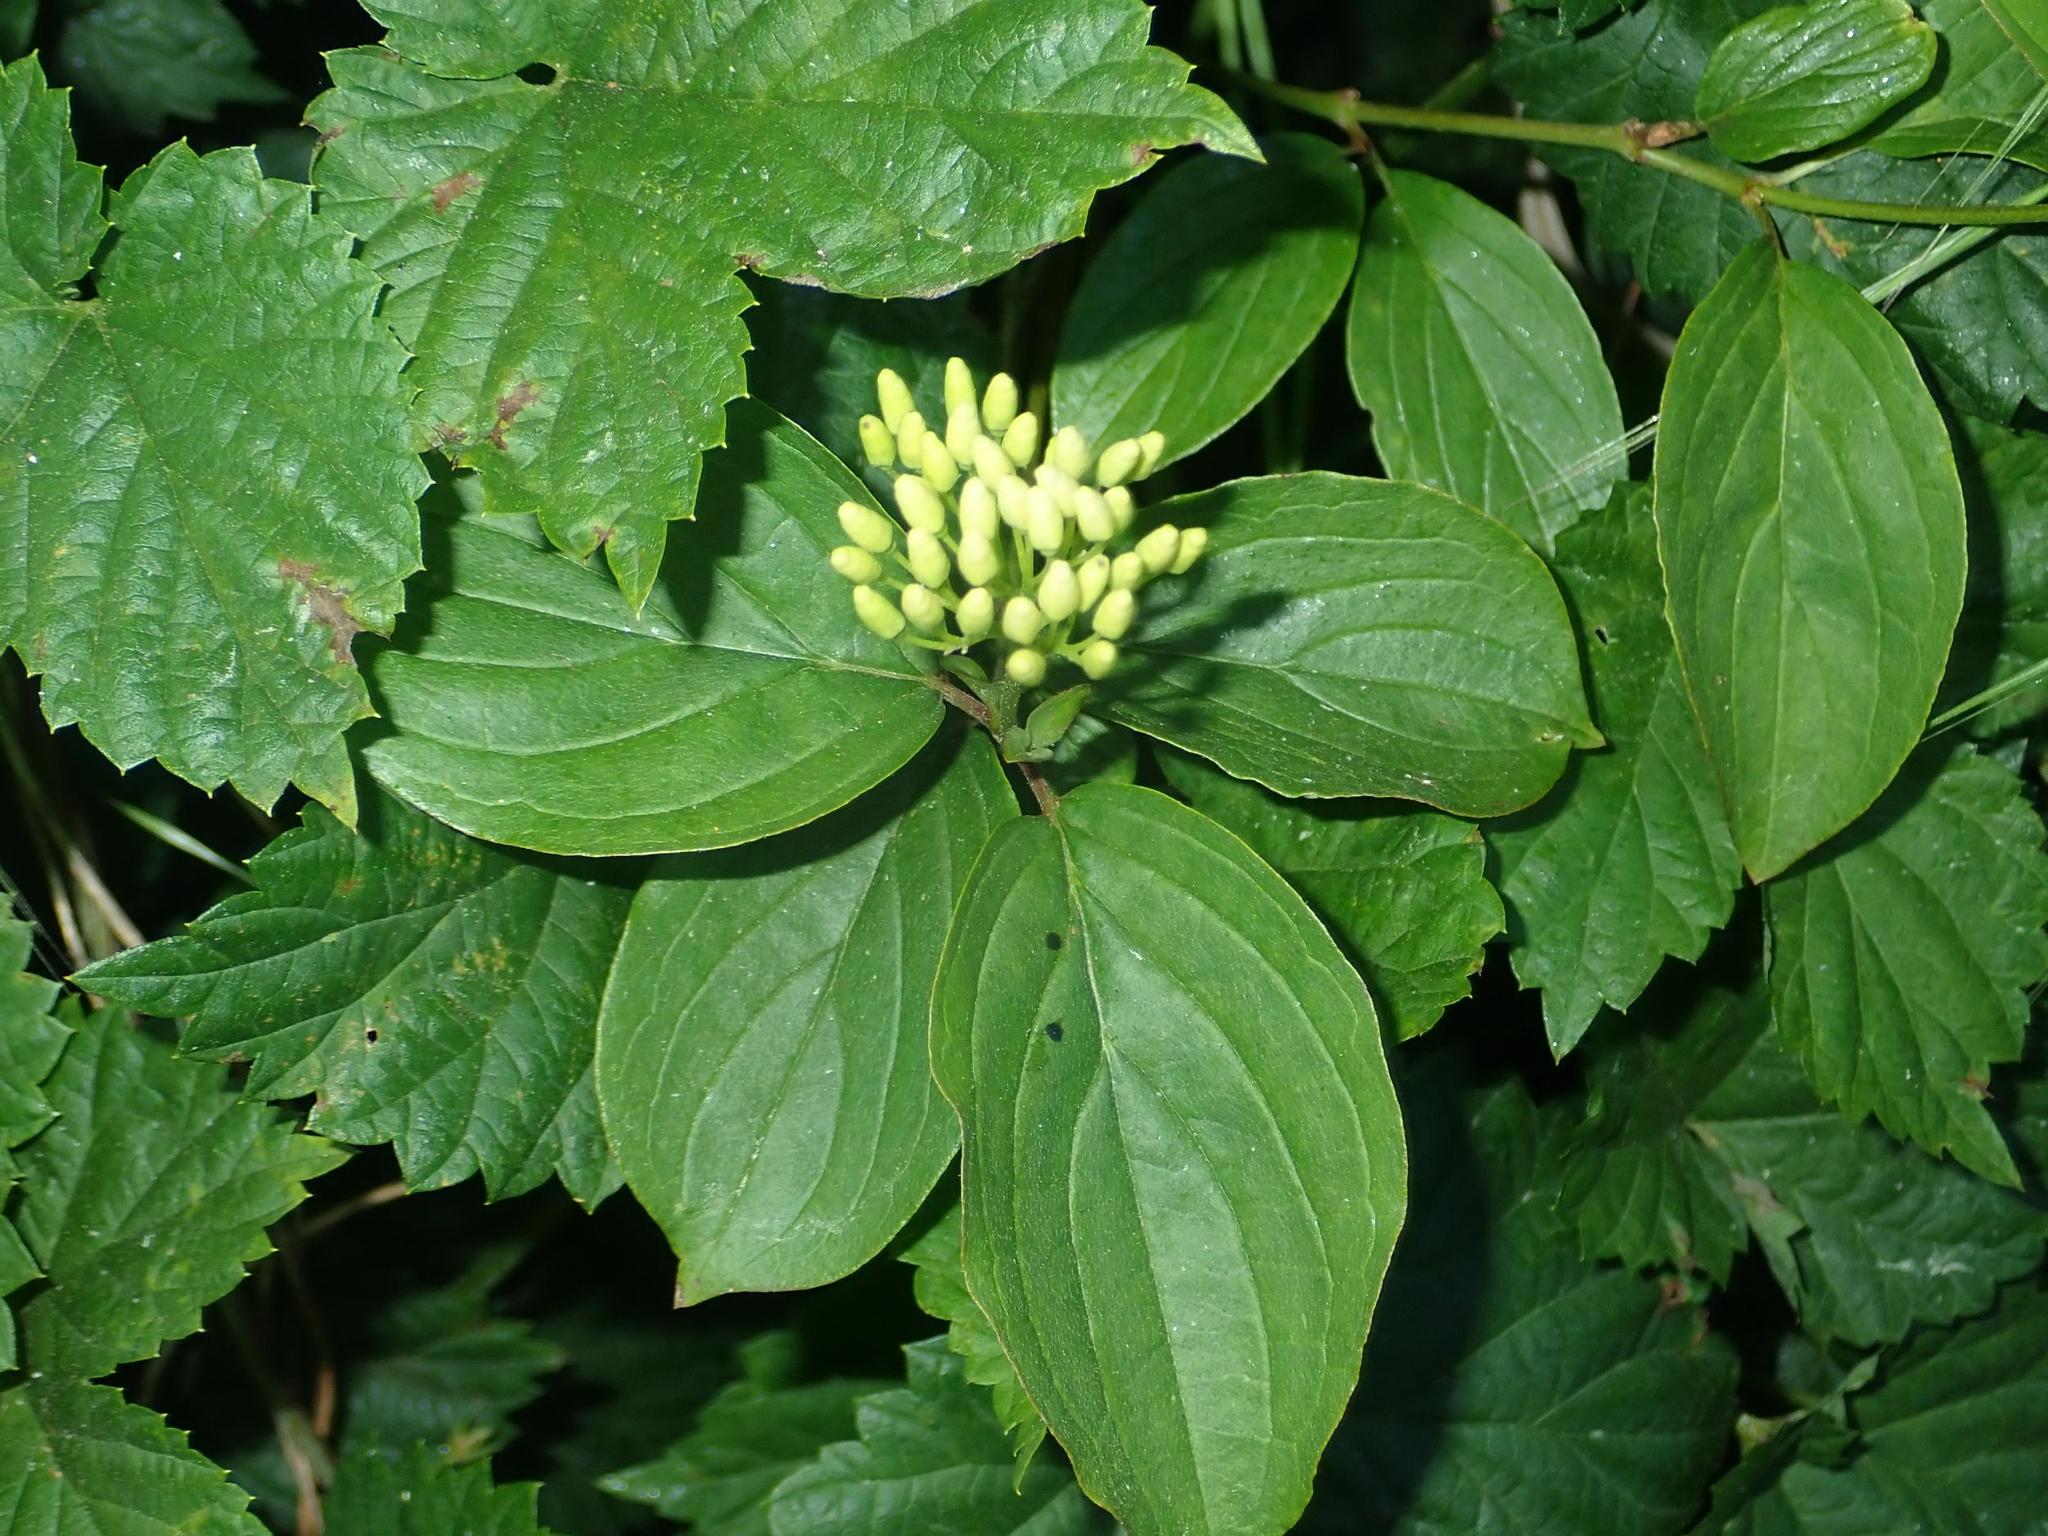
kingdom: Plantae
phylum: Tracheophyta
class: Magnoliopsida
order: Cornales
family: Cornaceae
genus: Cornus
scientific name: Cornus sanguinea
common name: Dogwood
